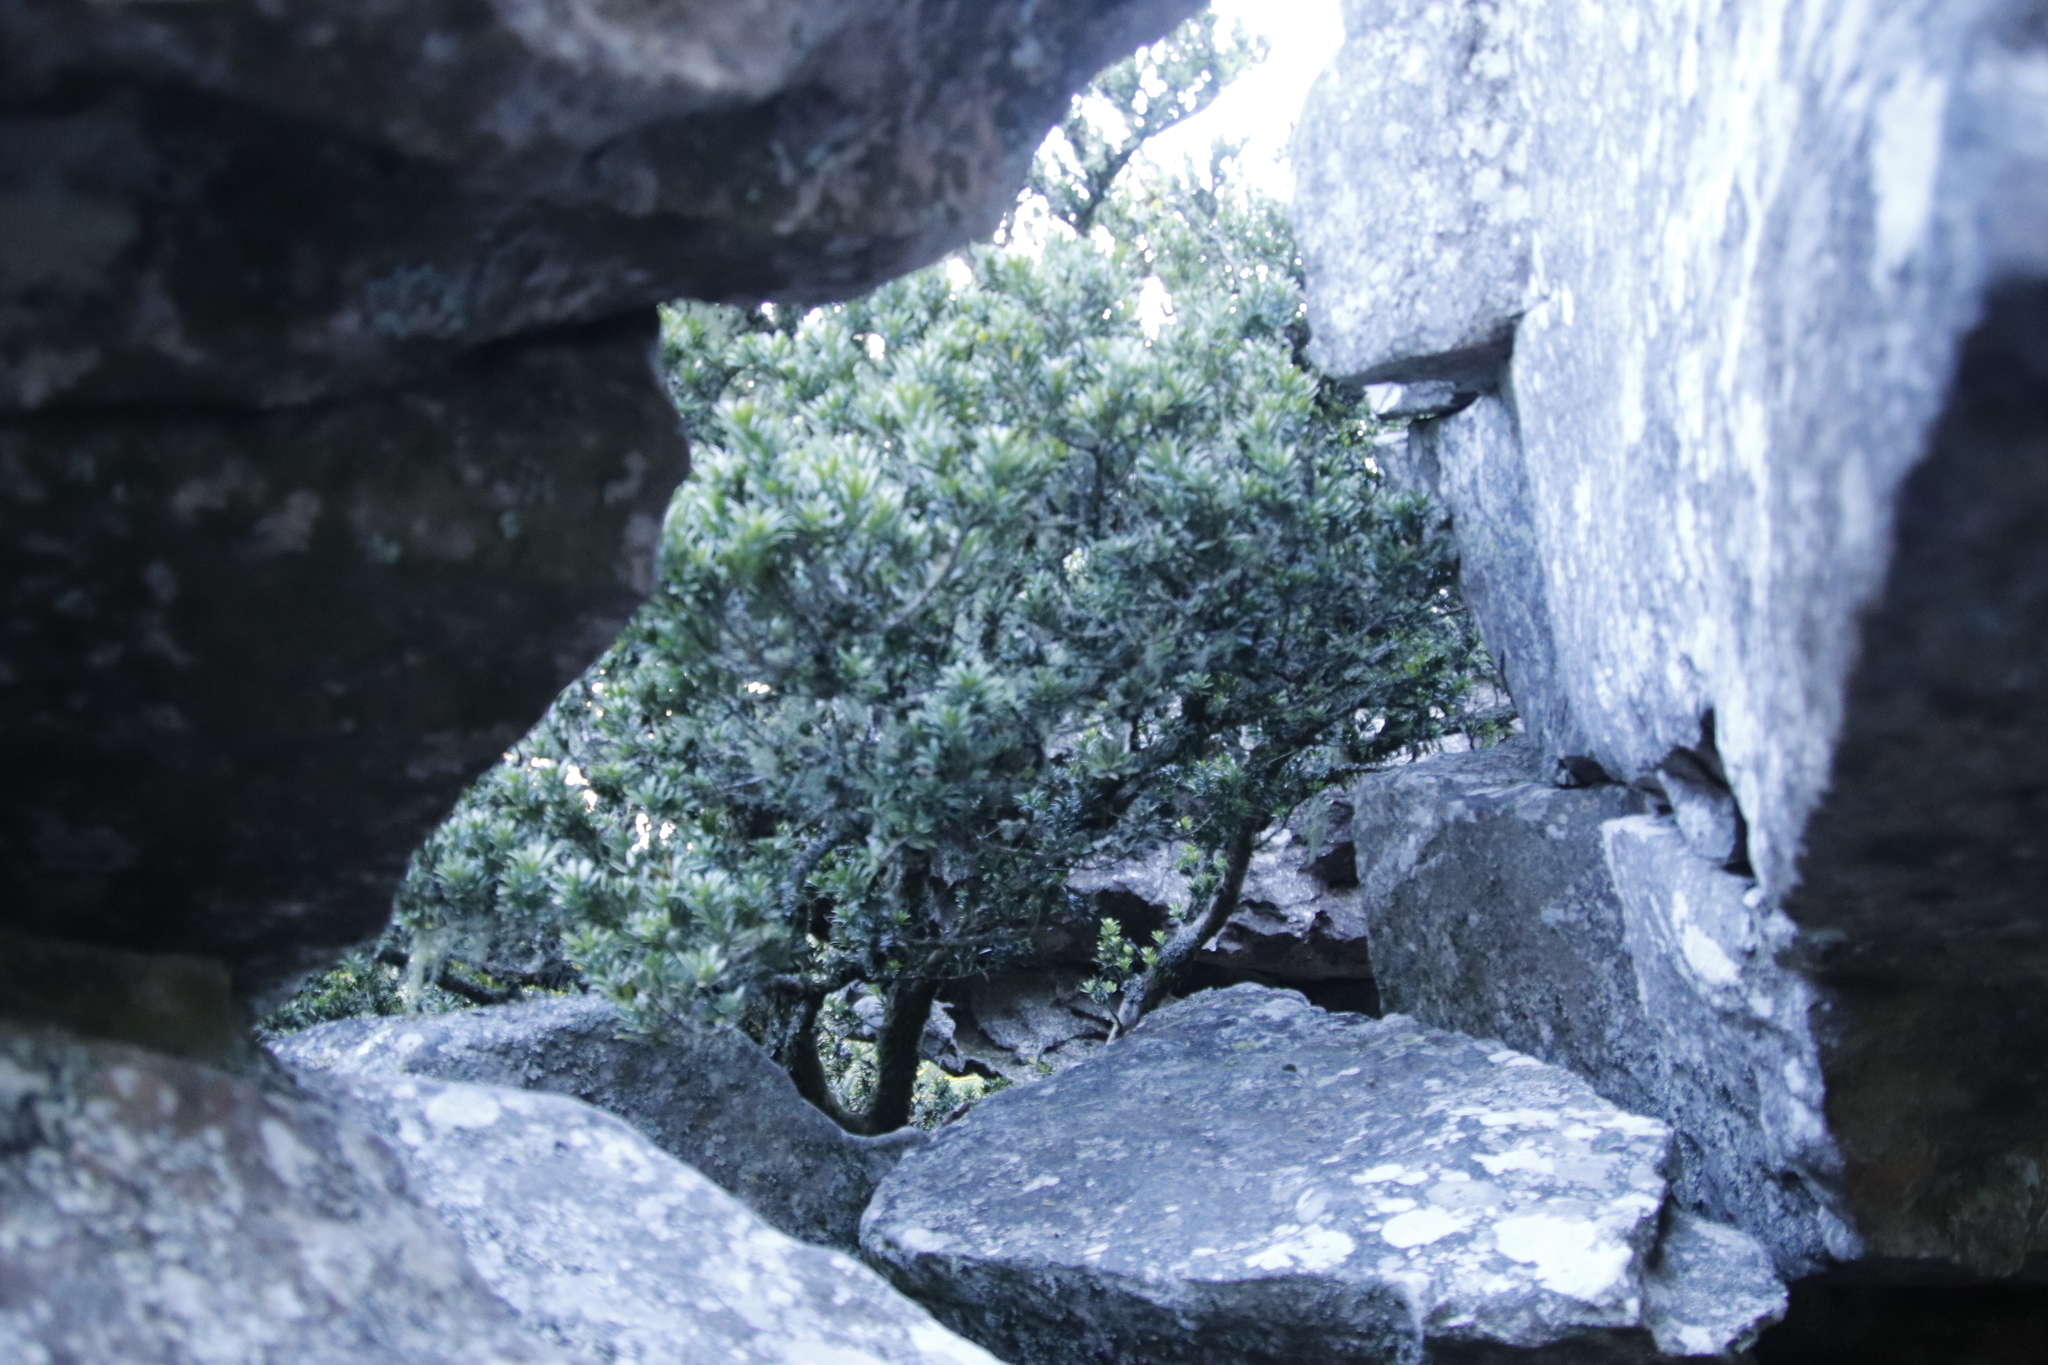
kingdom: Plantae
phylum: Tracheophyta
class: Pinopsida
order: Pinales
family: Podocarpaceae
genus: Podocarpus
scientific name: Podocarpus latifolius
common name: True yellowwood
